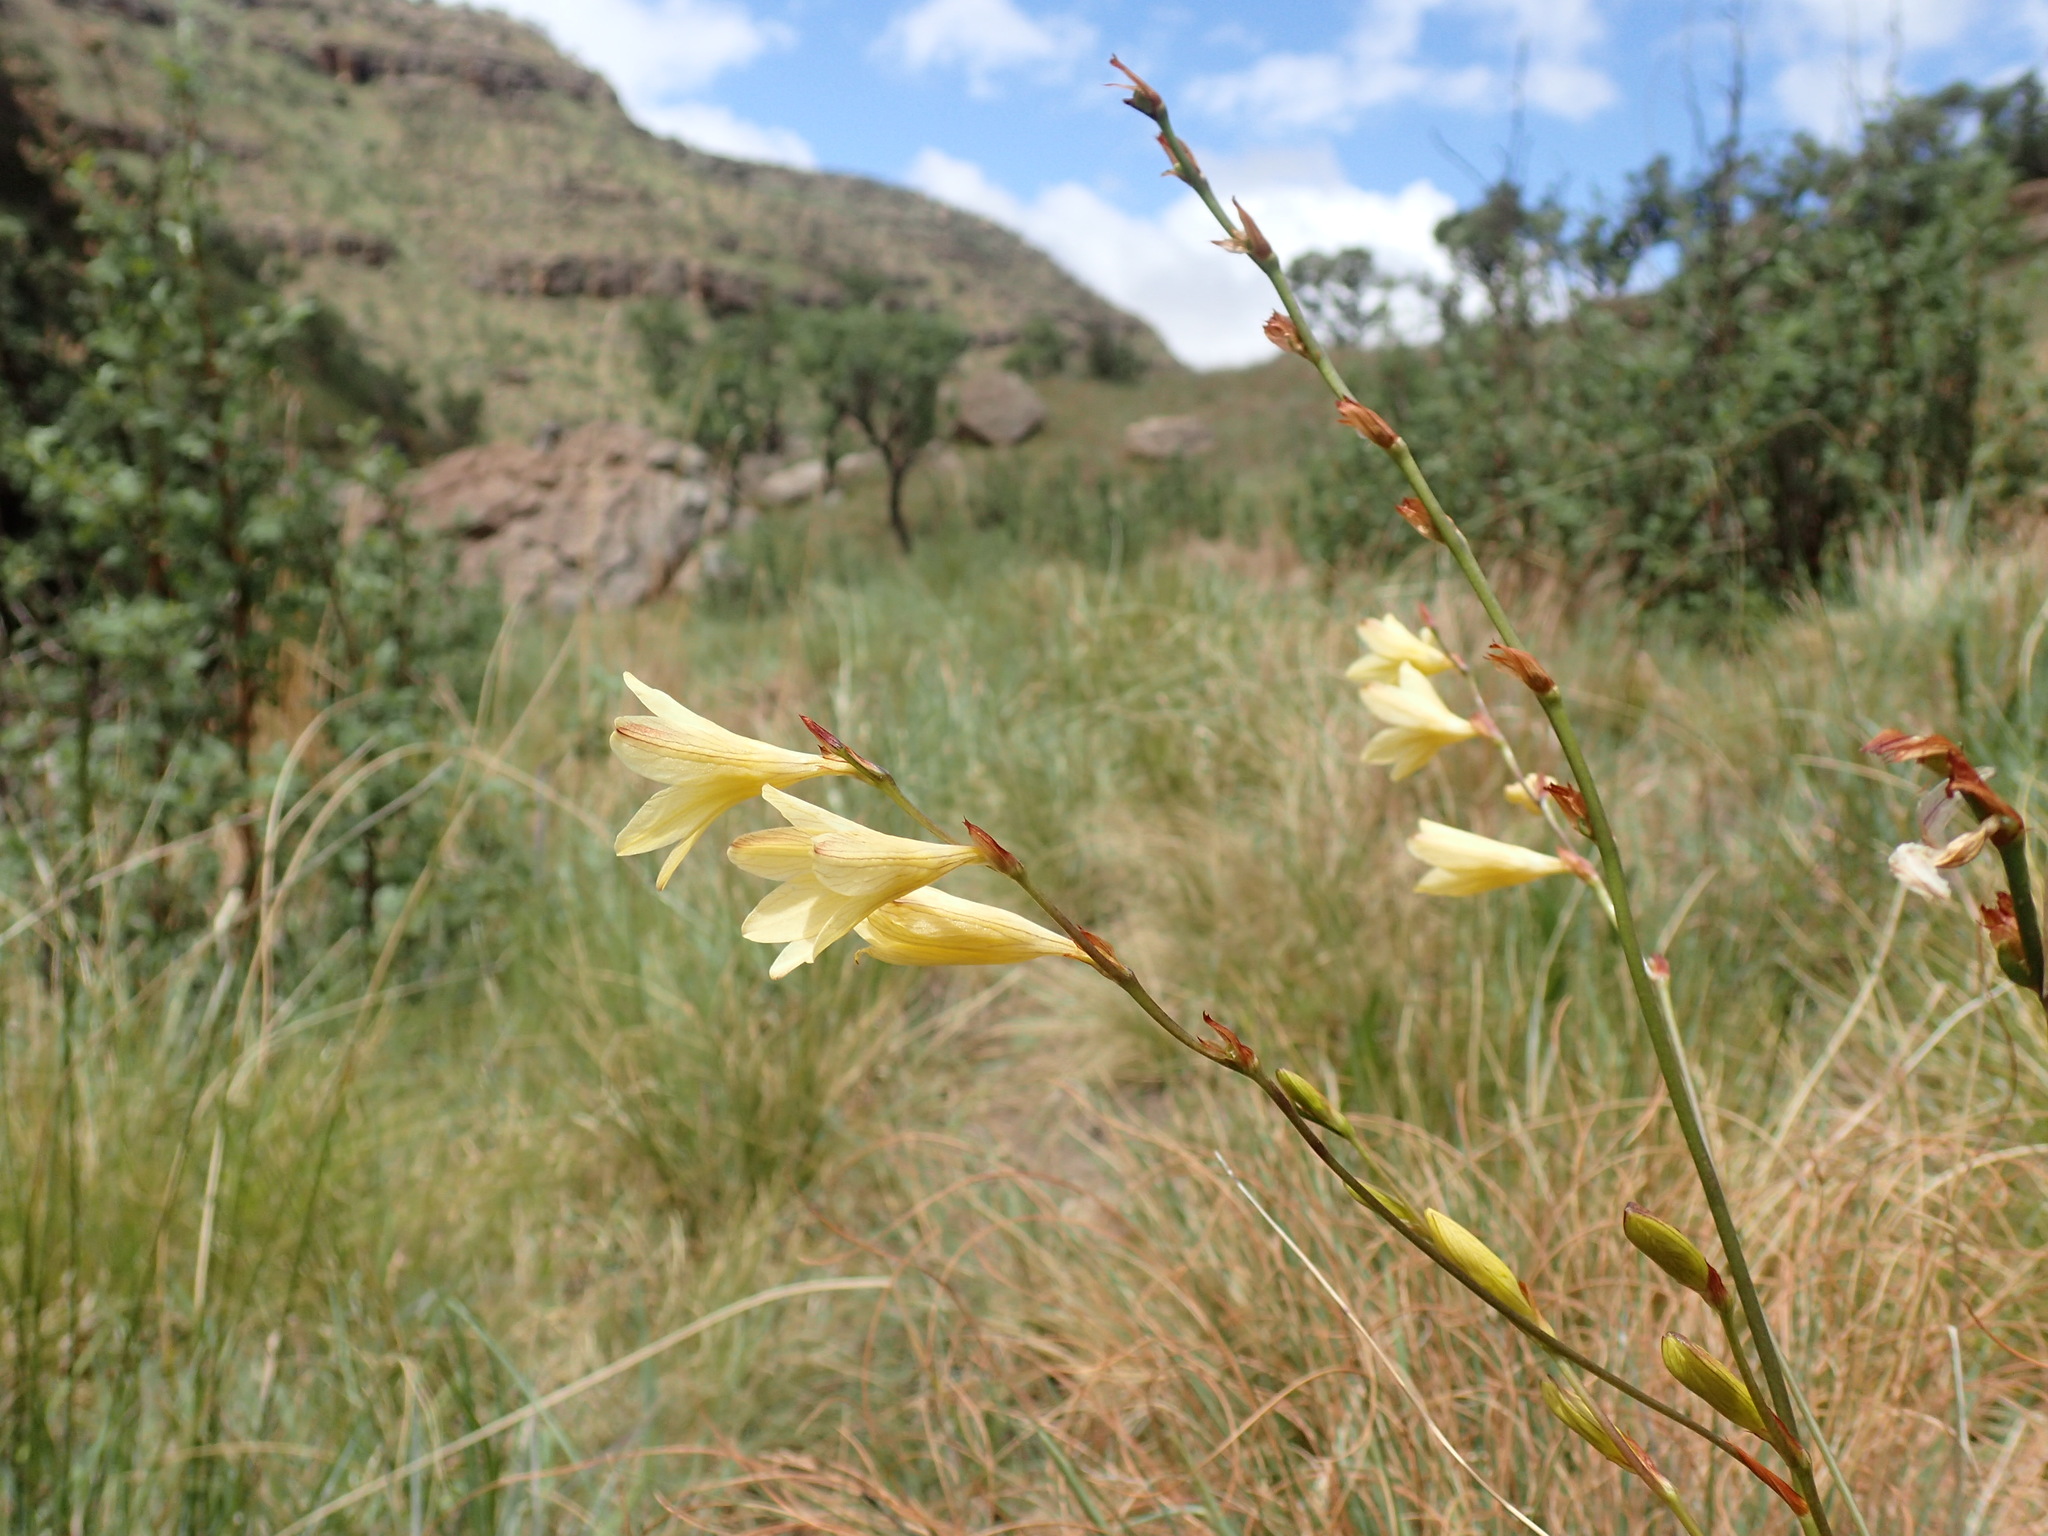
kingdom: Plantae
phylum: Tracheophyta
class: Liliopsida
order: Asparagales
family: Iridaceae
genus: Tritonia
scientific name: Tritonia gladiolaris
